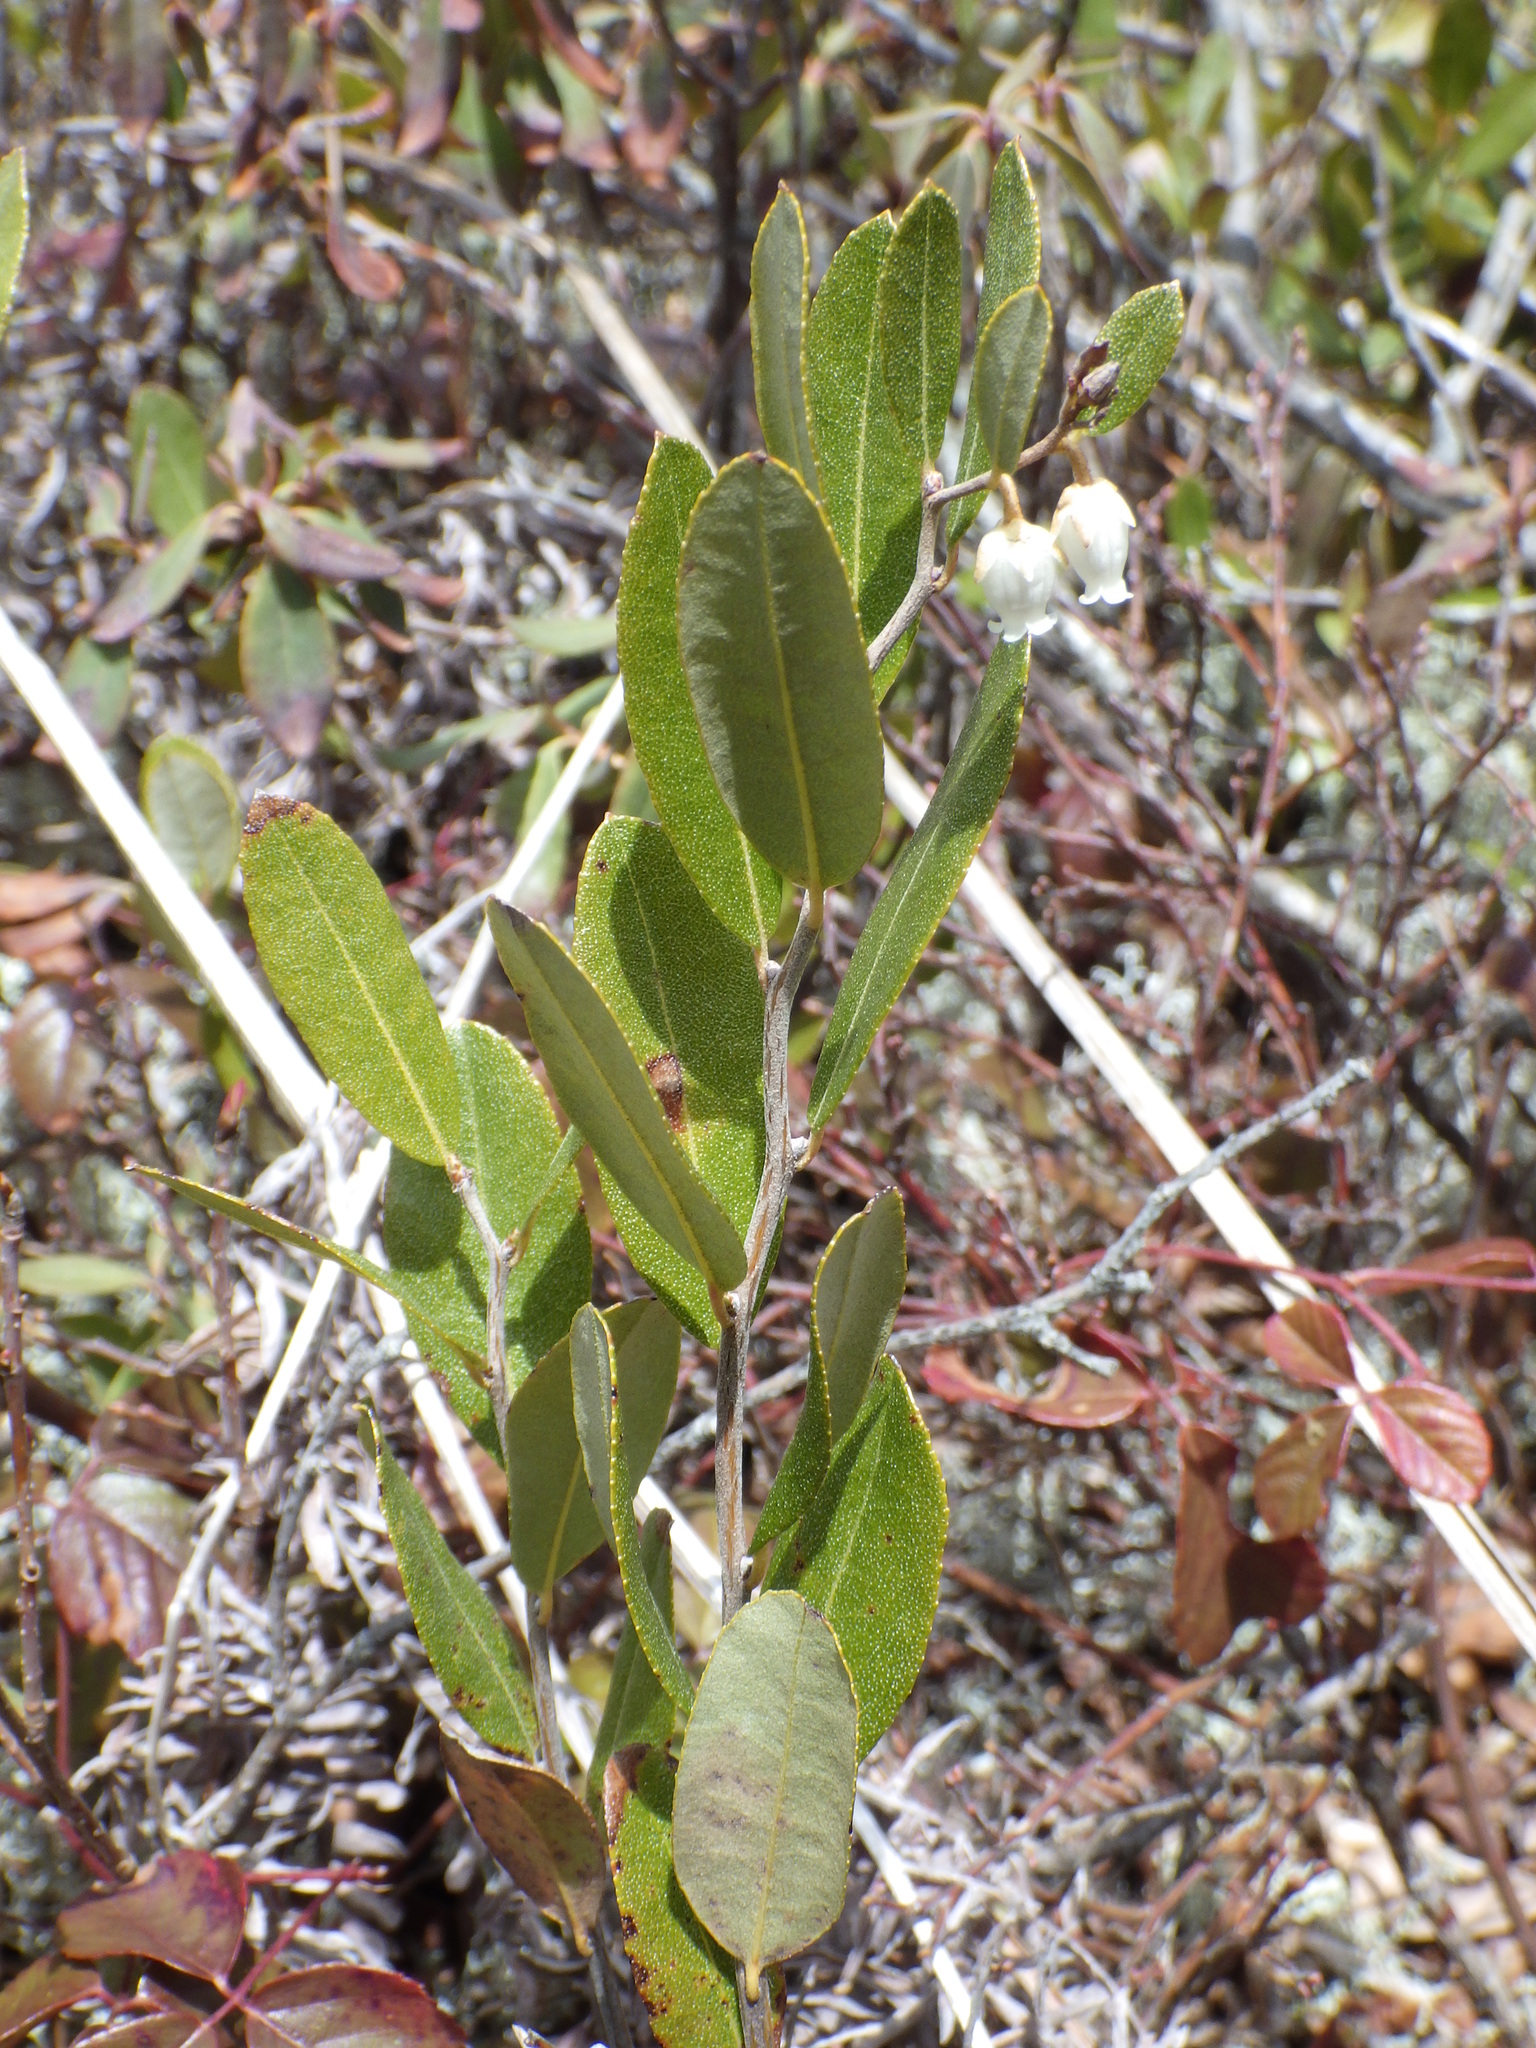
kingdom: Plantae
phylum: Tracheophyta
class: Magnoliopsida
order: Ericales
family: Ericaceae
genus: Chamaedaphne
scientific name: Chamaedaphne calyculata
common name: Leatherleaf
